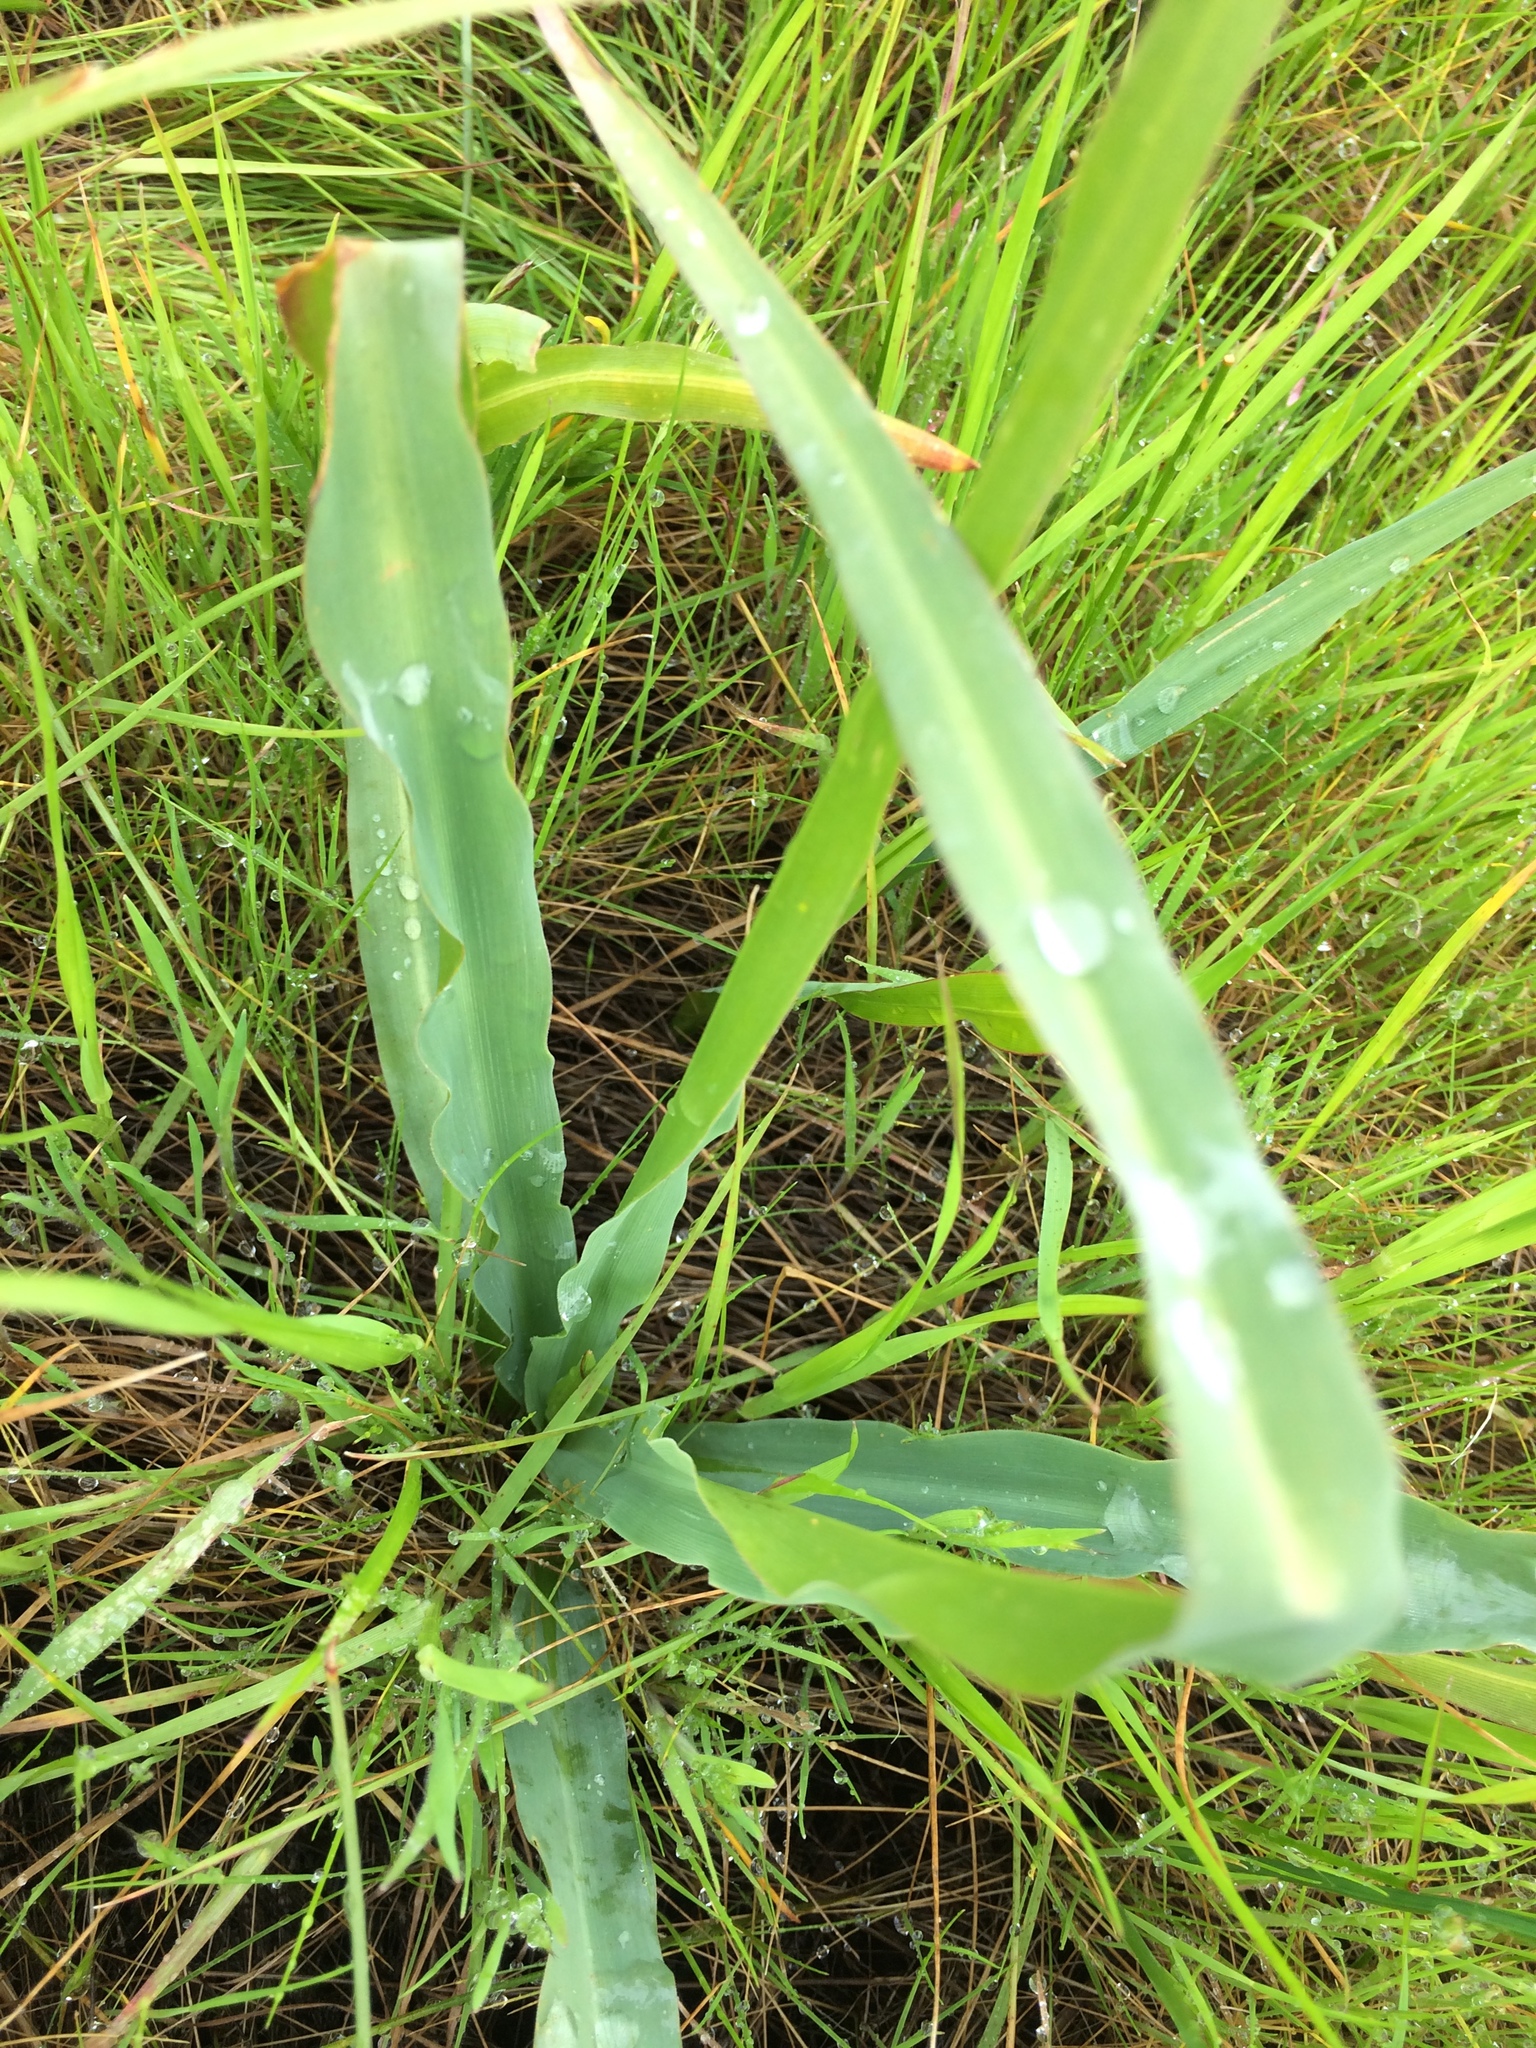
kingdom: Plantae
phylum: Tracheophyta
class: Liliopsida
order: Asparagales
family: Asparagaceae
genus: Chlorogalum
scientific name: Chlorogalum pomeridianum
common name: Amole
